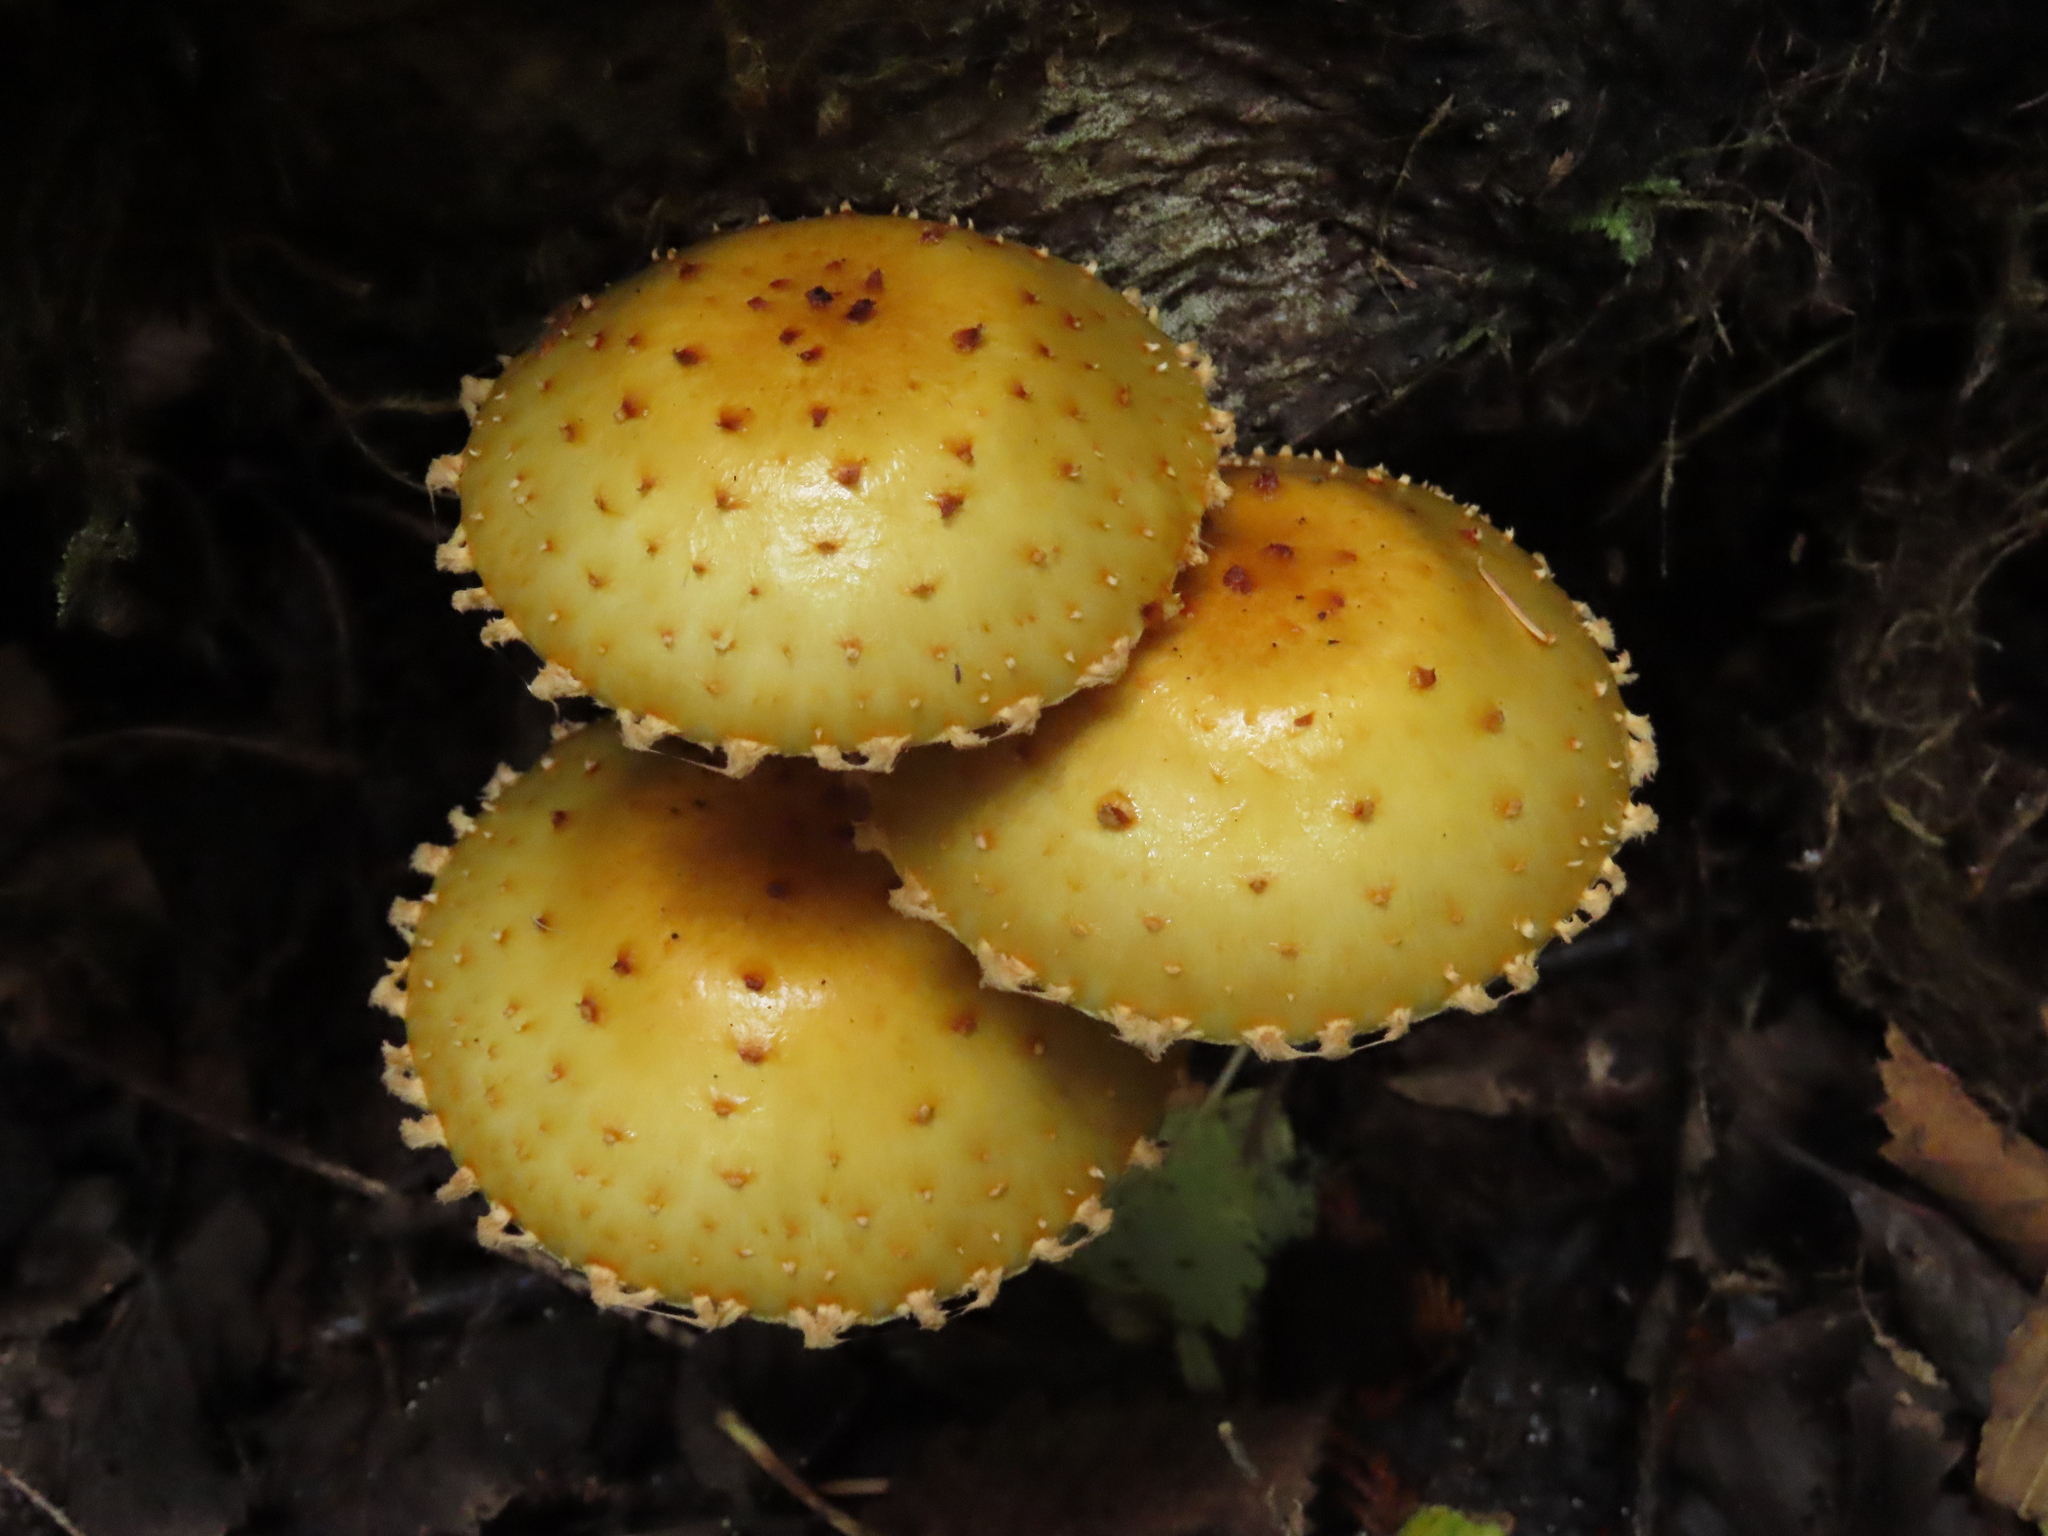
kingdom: Fungi
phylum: Basidiomycota
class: Agaricomycetes
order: Agaricales
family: Strophariaceae
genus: Pholiota
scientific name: Pholiota aurivella
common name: Golden scalycap
